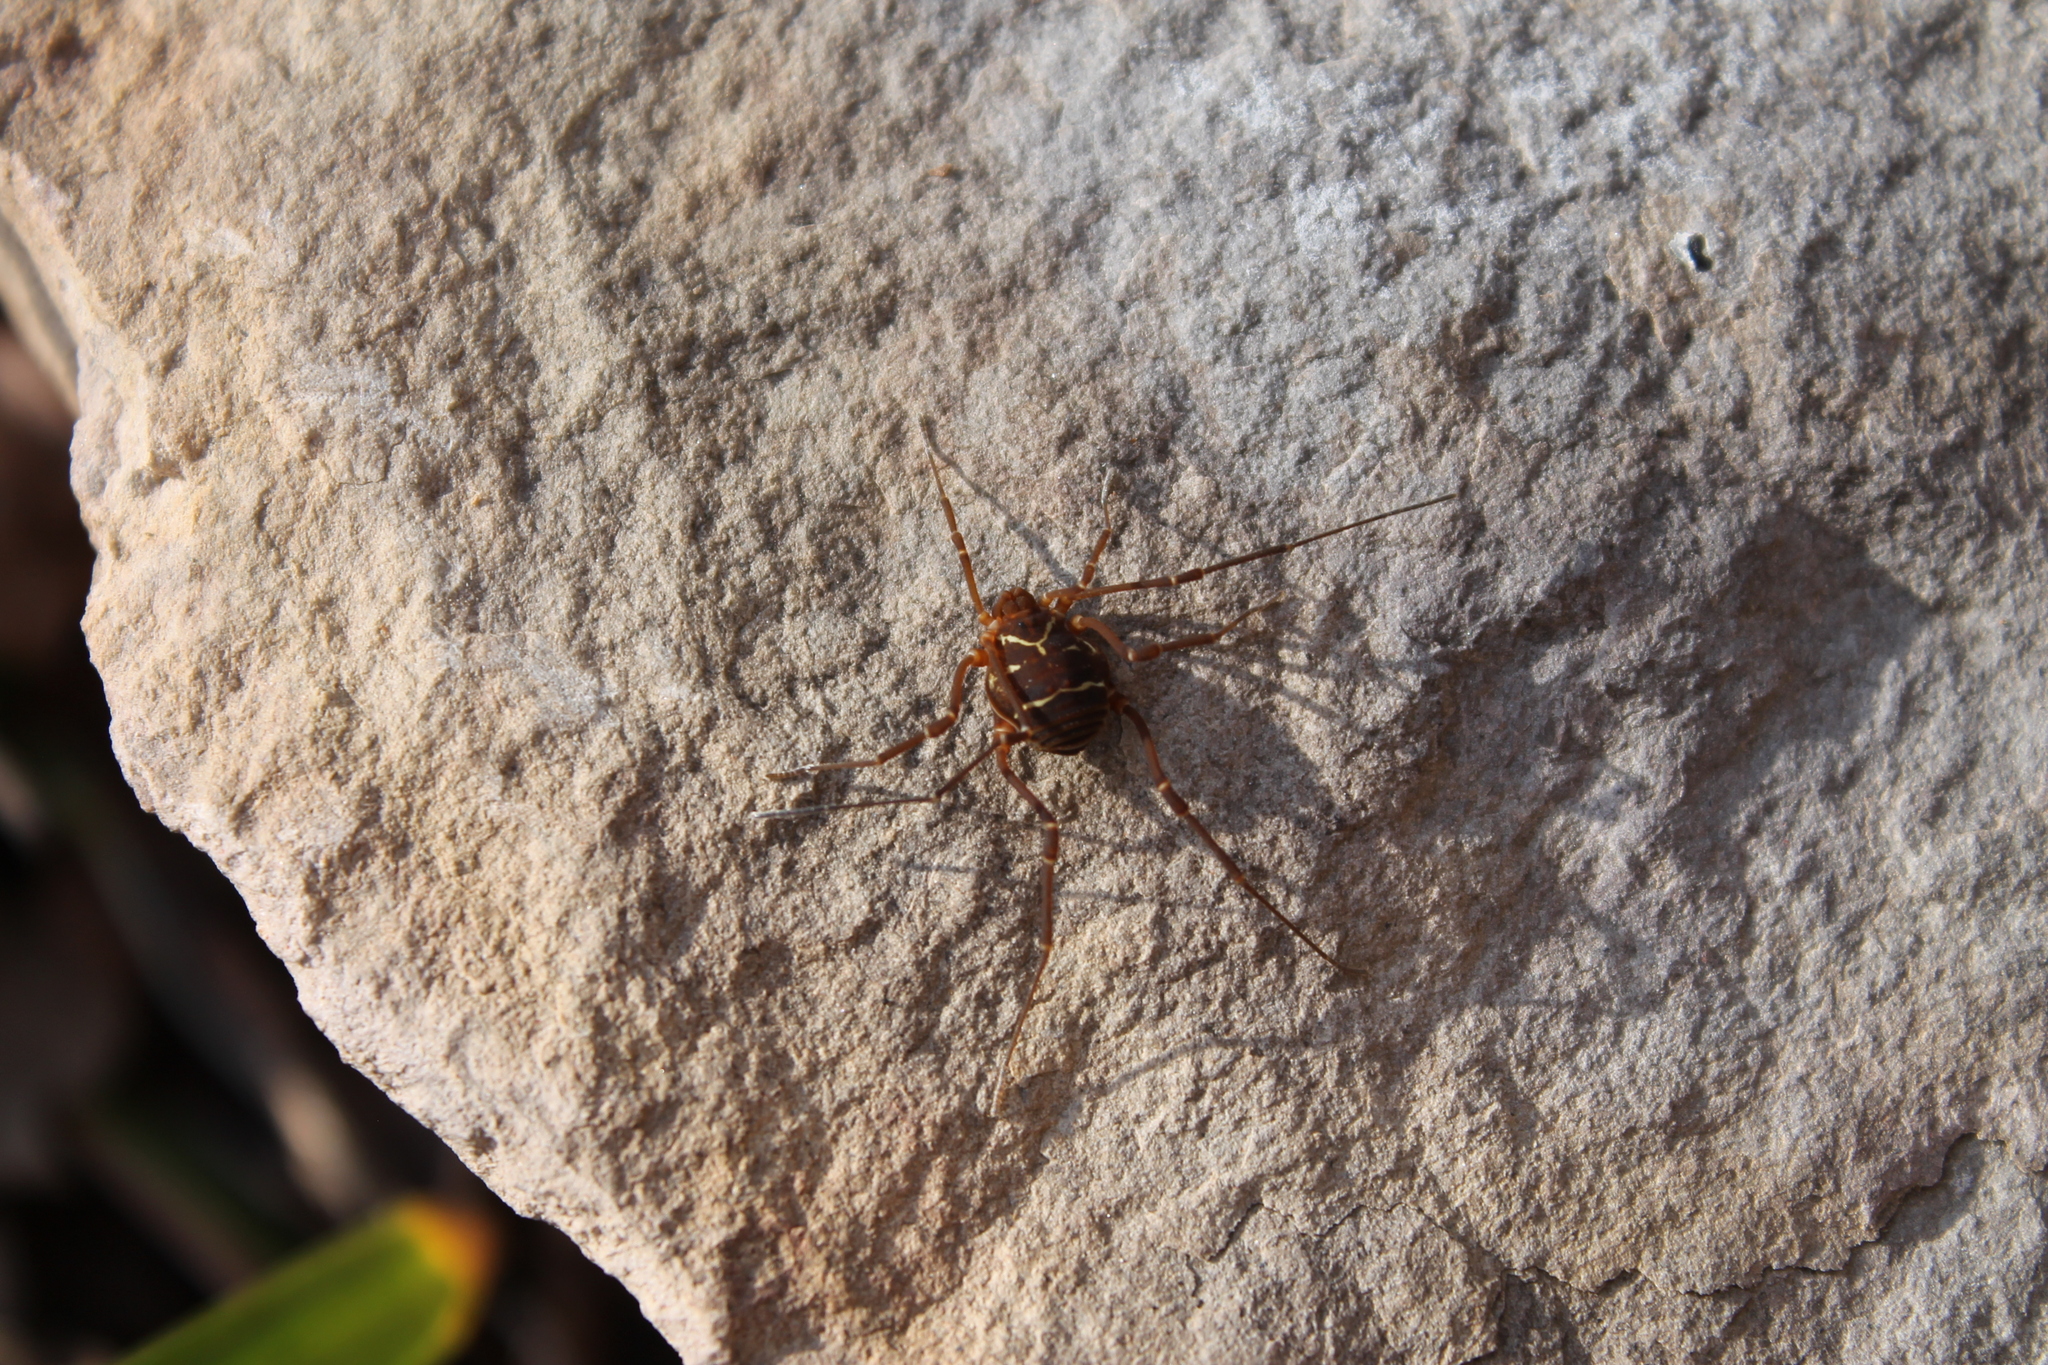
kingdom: Animalia
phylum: Arthropoda
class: Arachnida
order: Opiliones
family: Cosmetidae
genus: Libitioides
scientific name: Libitioides sayi
